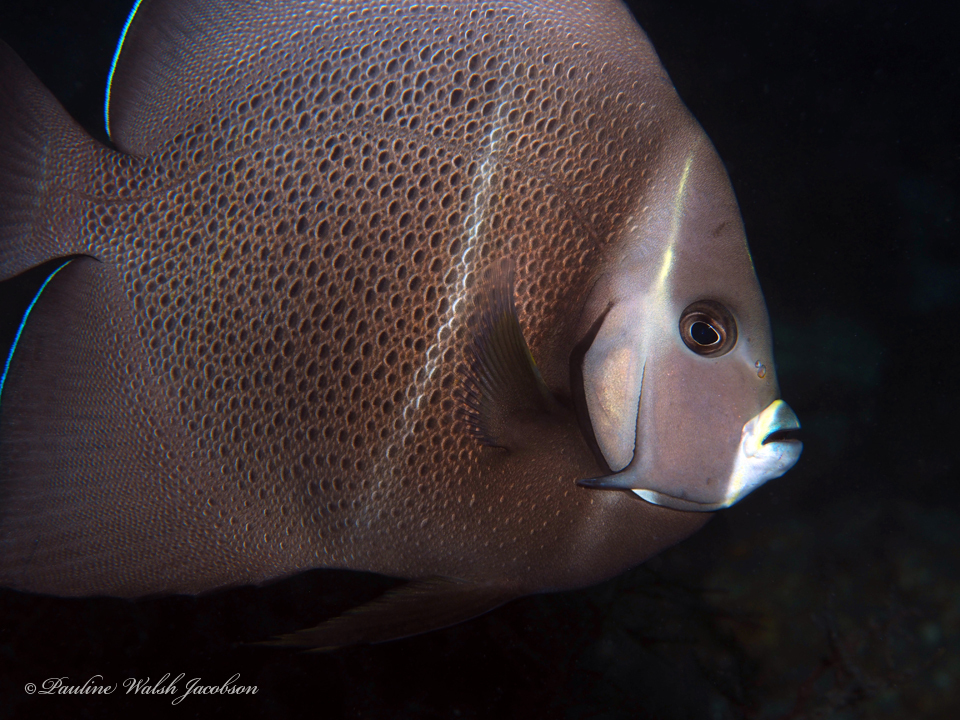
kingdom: Animalia
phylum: Chordata
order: Perciformes
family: Pomacanthidae
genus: Pomacanthus
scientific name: Pomacanthus arcuatus
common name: Gray angelfish
